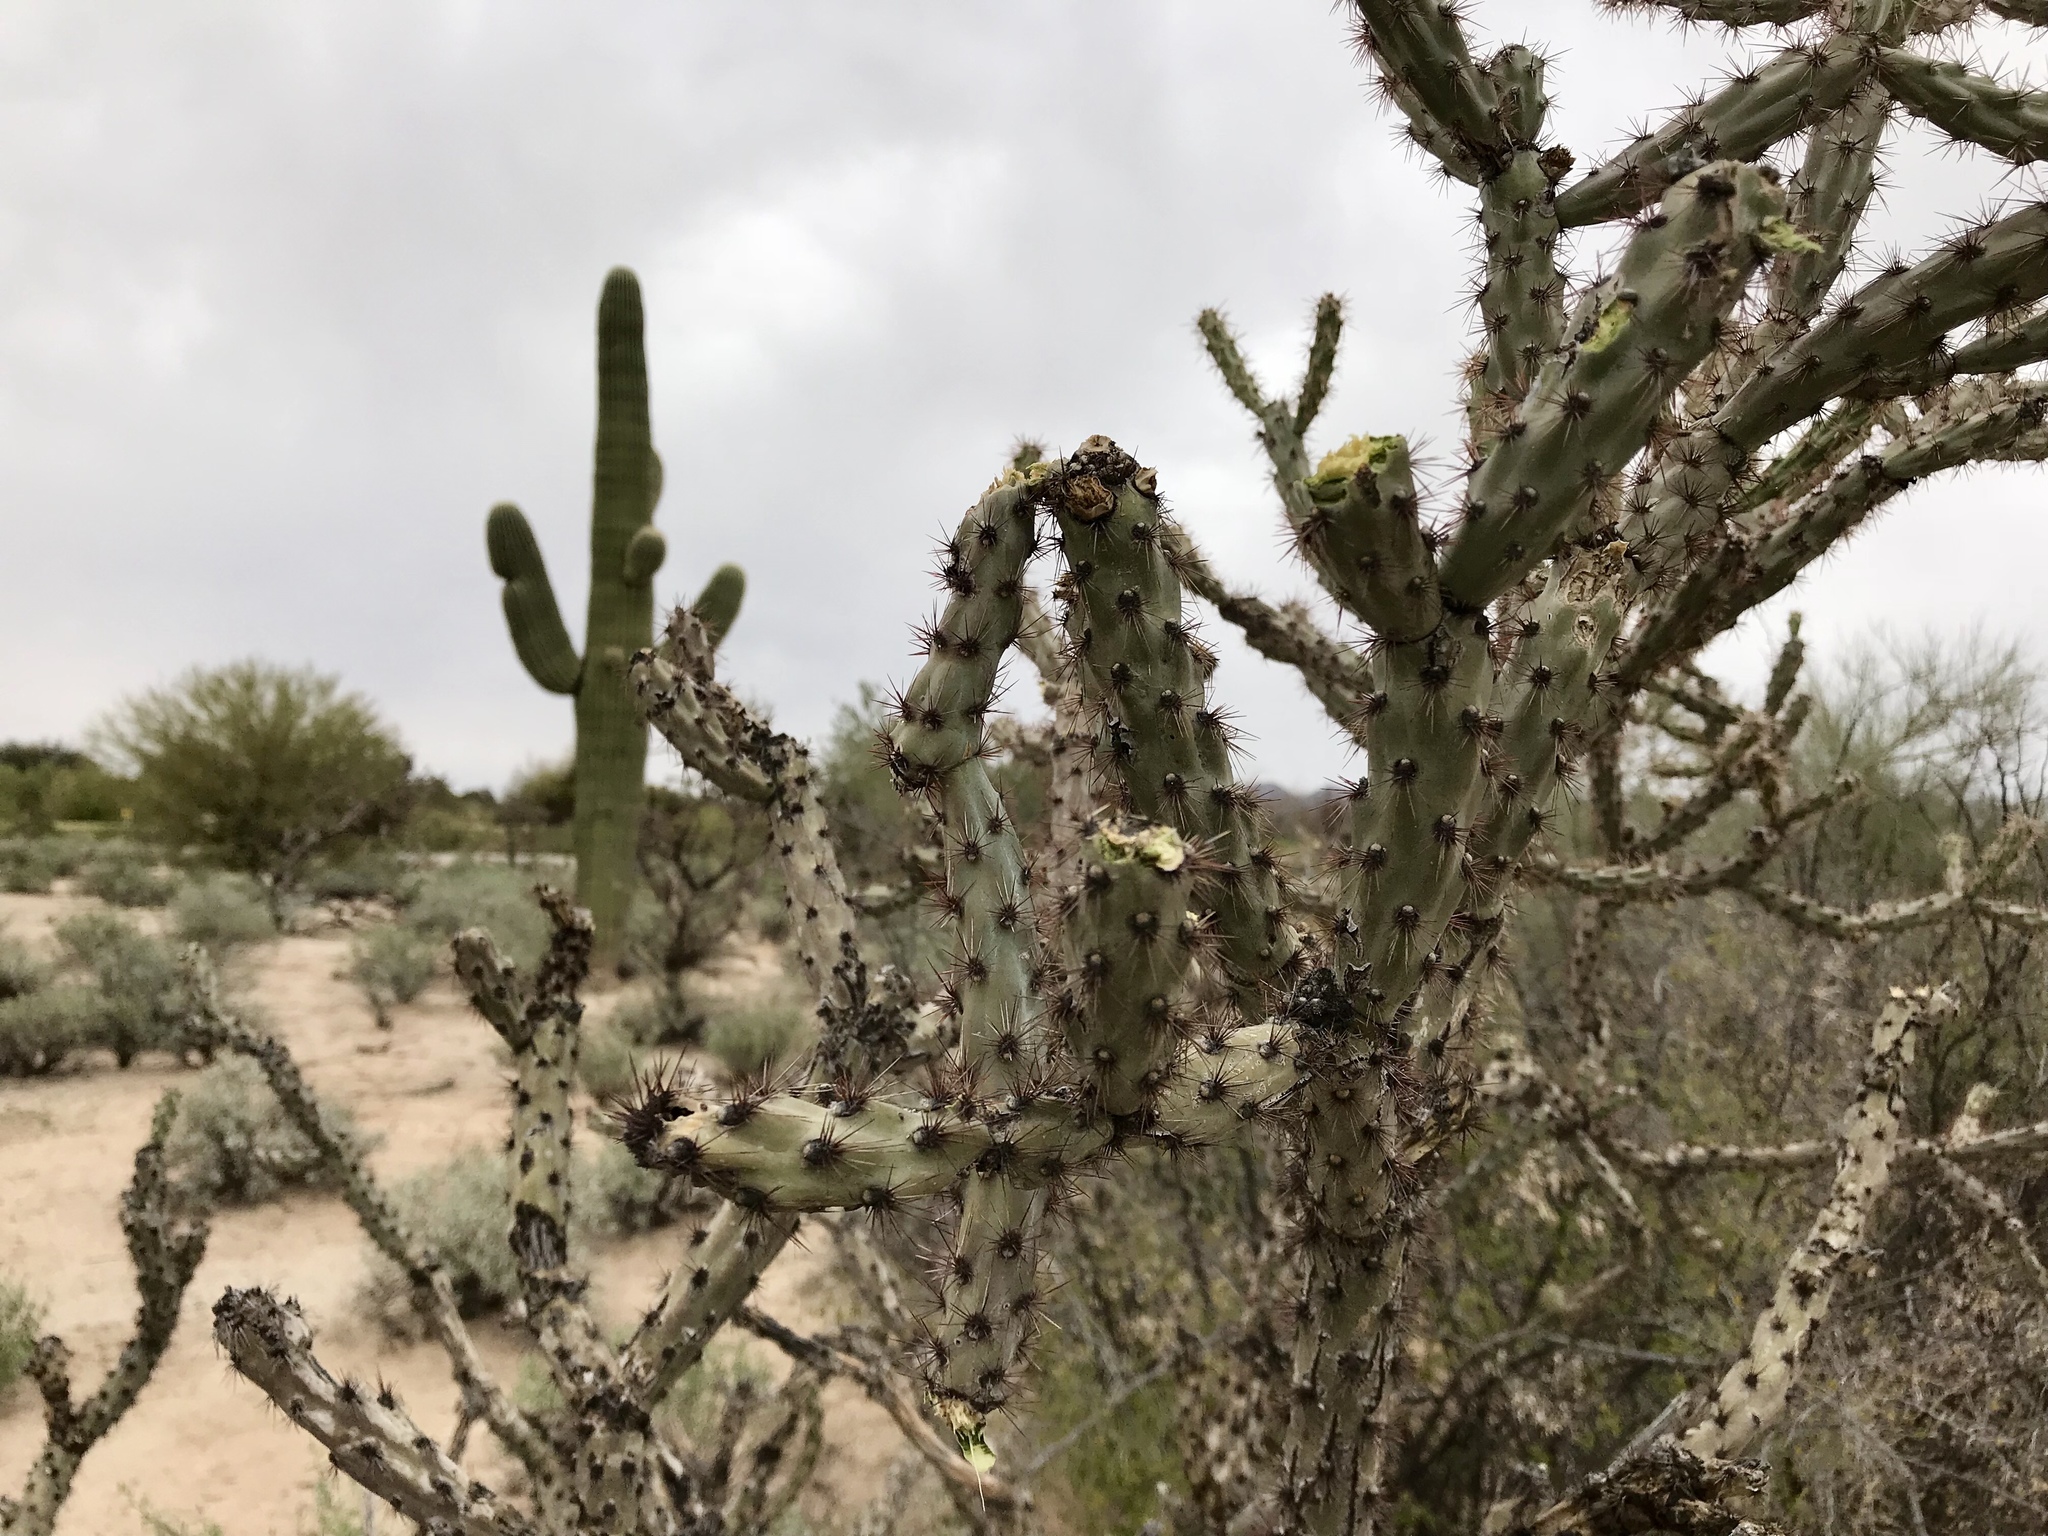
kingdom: Plantae
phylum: Tracheophyta
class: Magnoliopsida
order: Caryophyllales
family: Cactaceae
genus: Cylindropuntia
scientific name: Cylindropuntia acanthocarpa
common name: Buckhorn cholla
